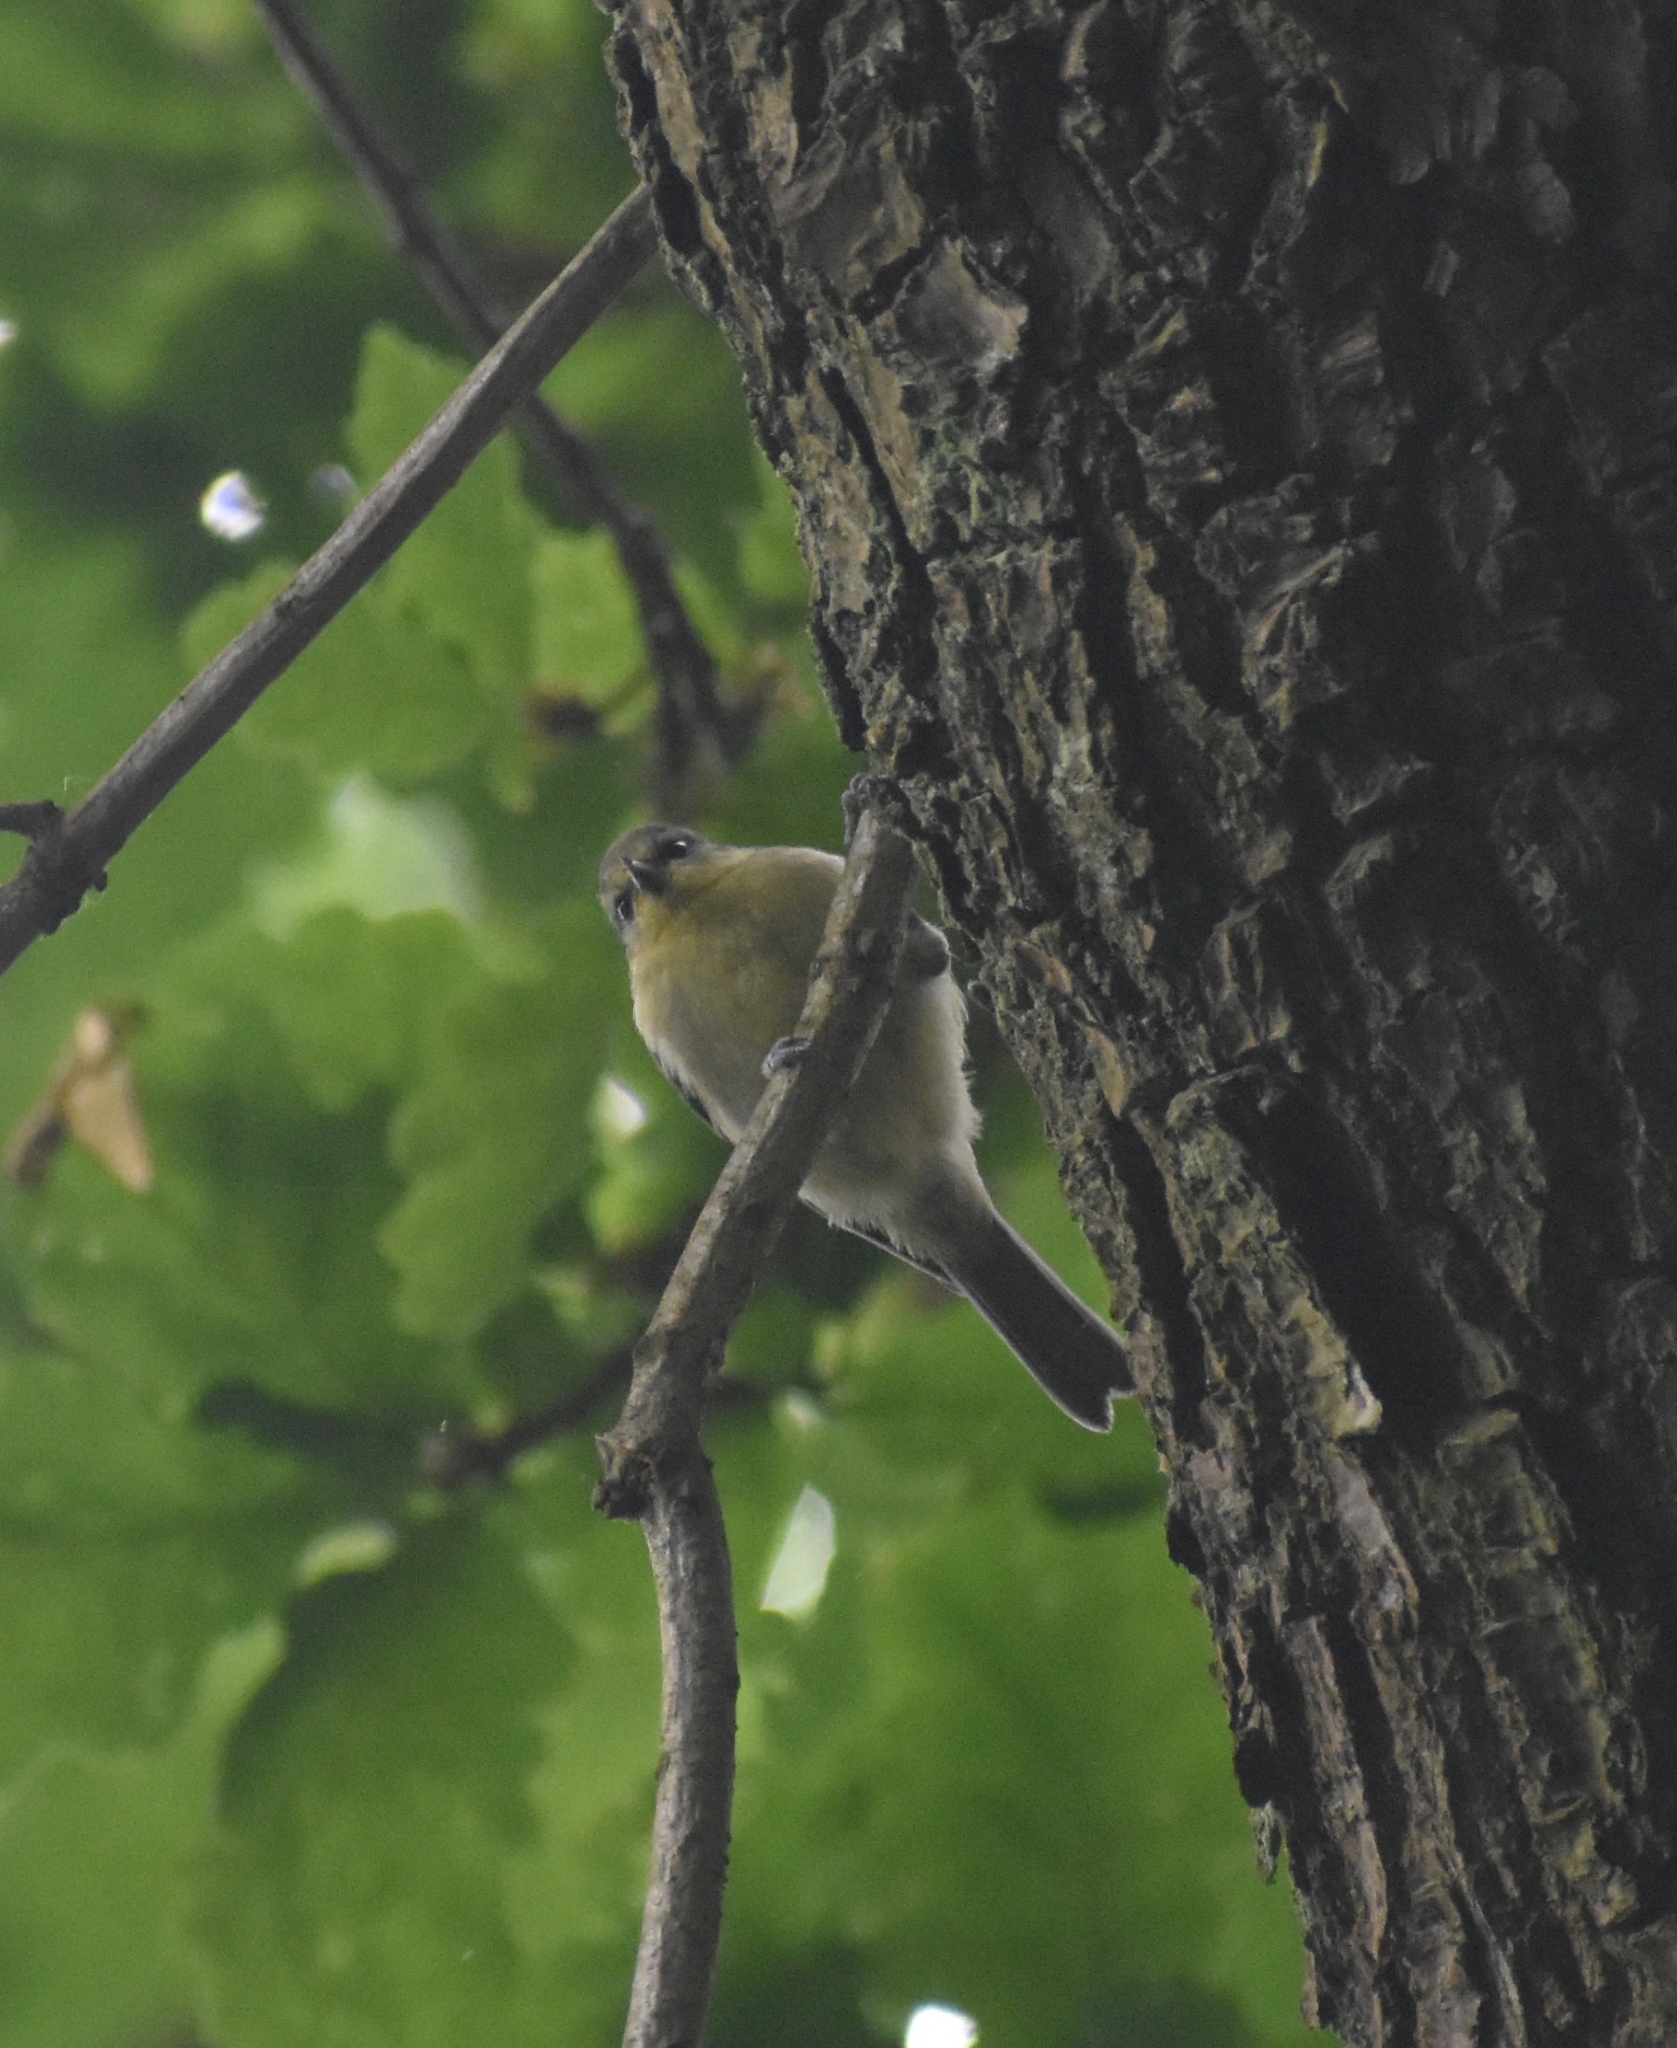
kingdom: Animalia
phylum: Chordata
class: Aves
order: Passeriformes
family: Paridae
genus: Cyanistes
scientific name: Cyanistes caeruleus
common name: Eurasian blue tit
